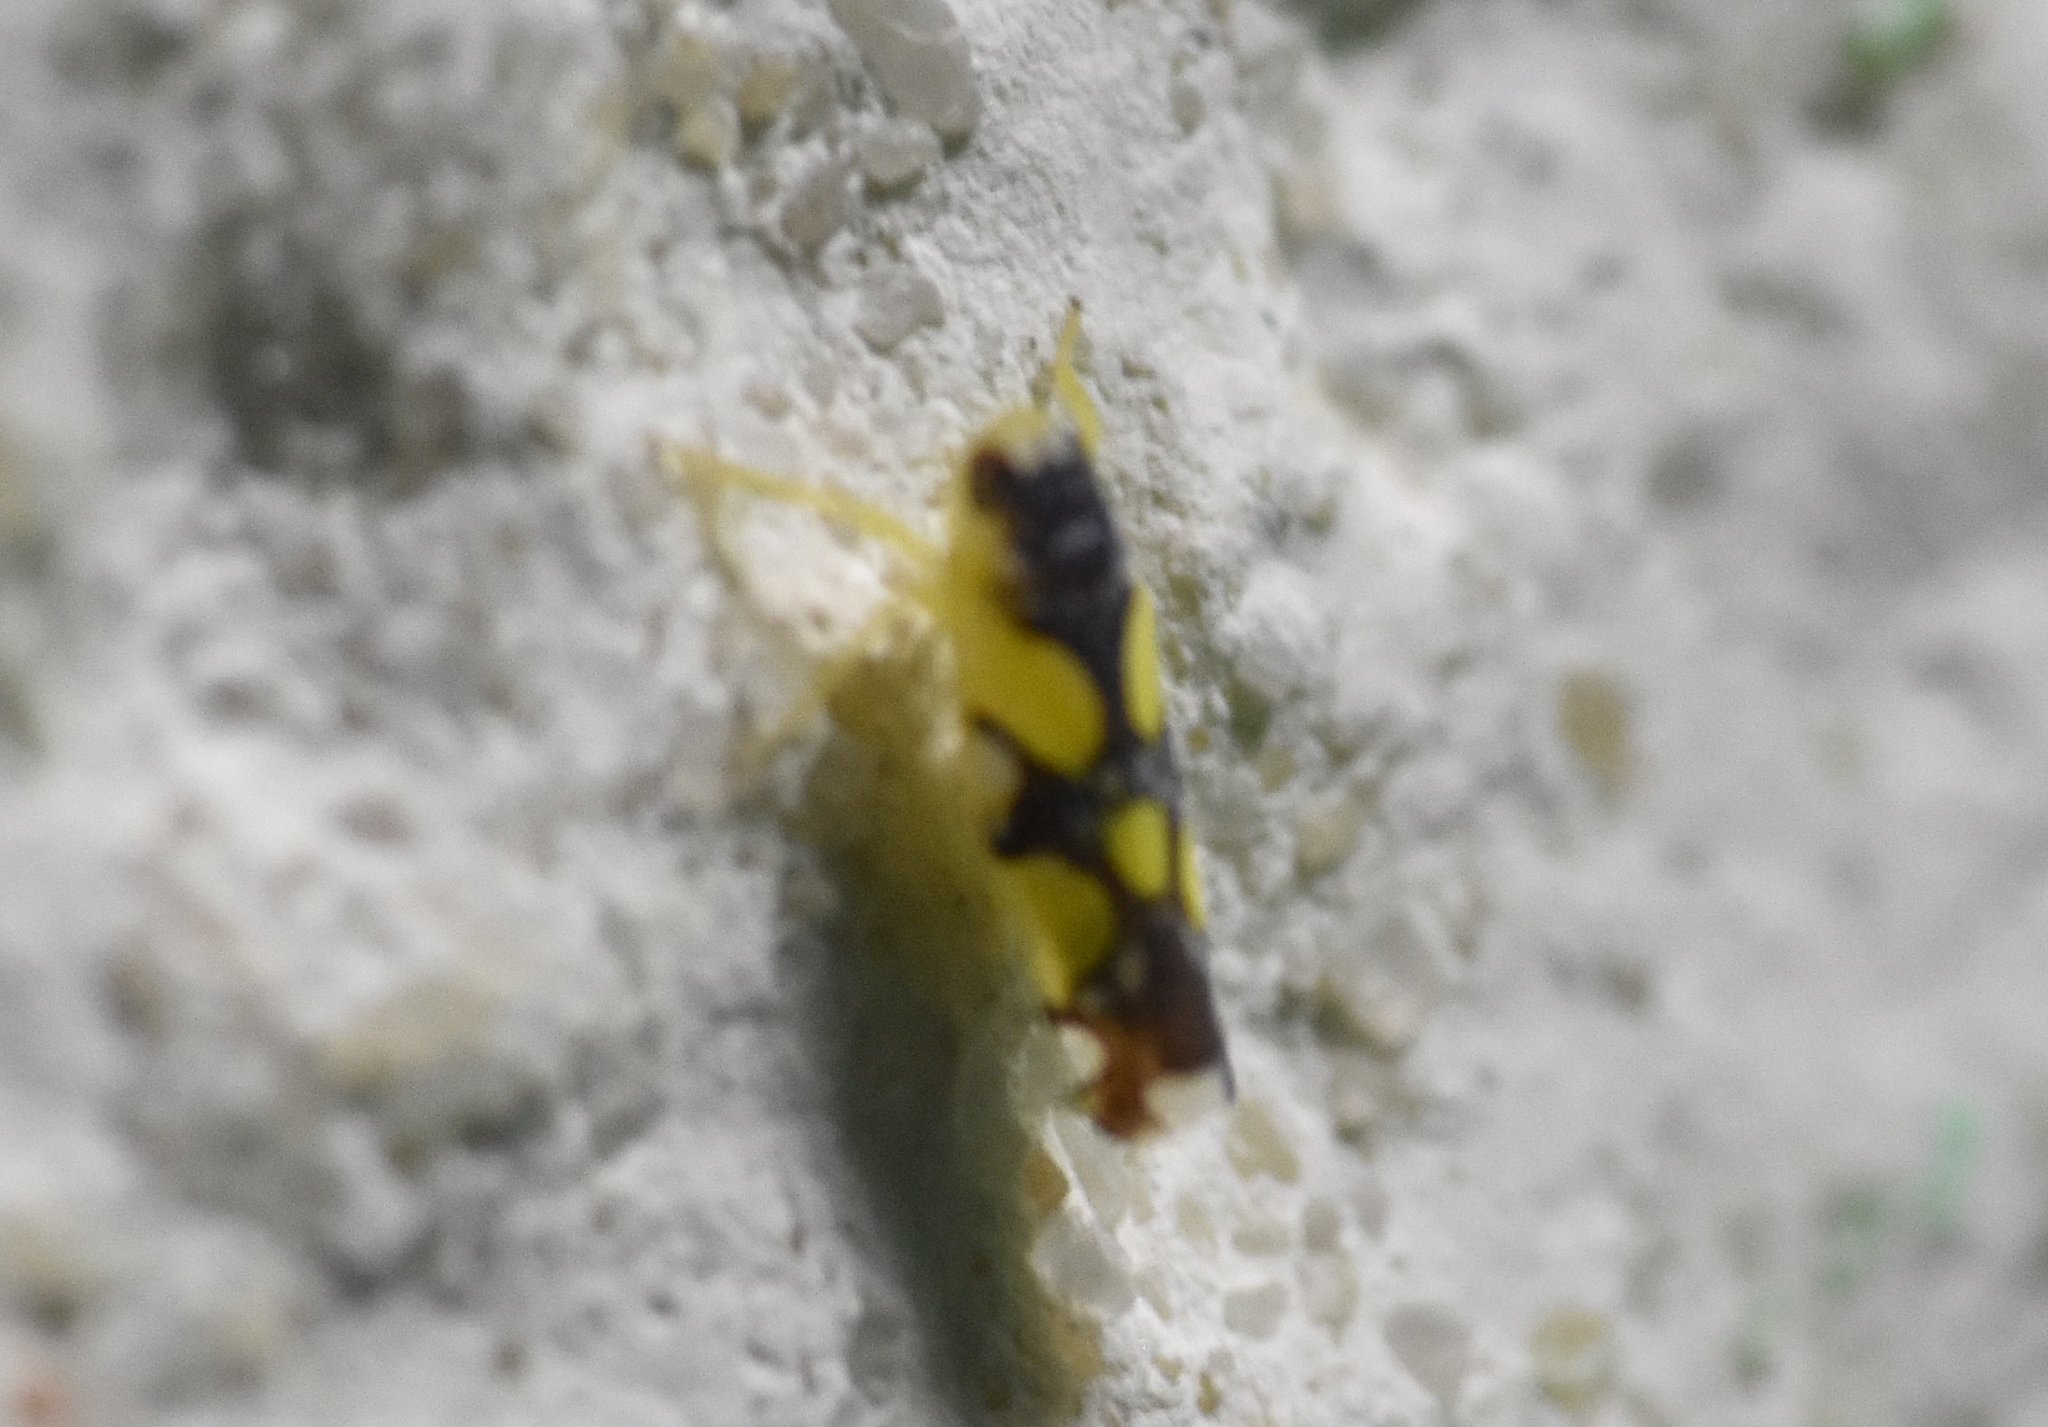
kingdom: Animalia
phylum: Arthropoda
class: Insecta
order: Hemiptera
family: Cicadellidae
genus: Protalebrella
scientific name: Protalebrella brasiliensis
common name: Brasilian leafhopper
